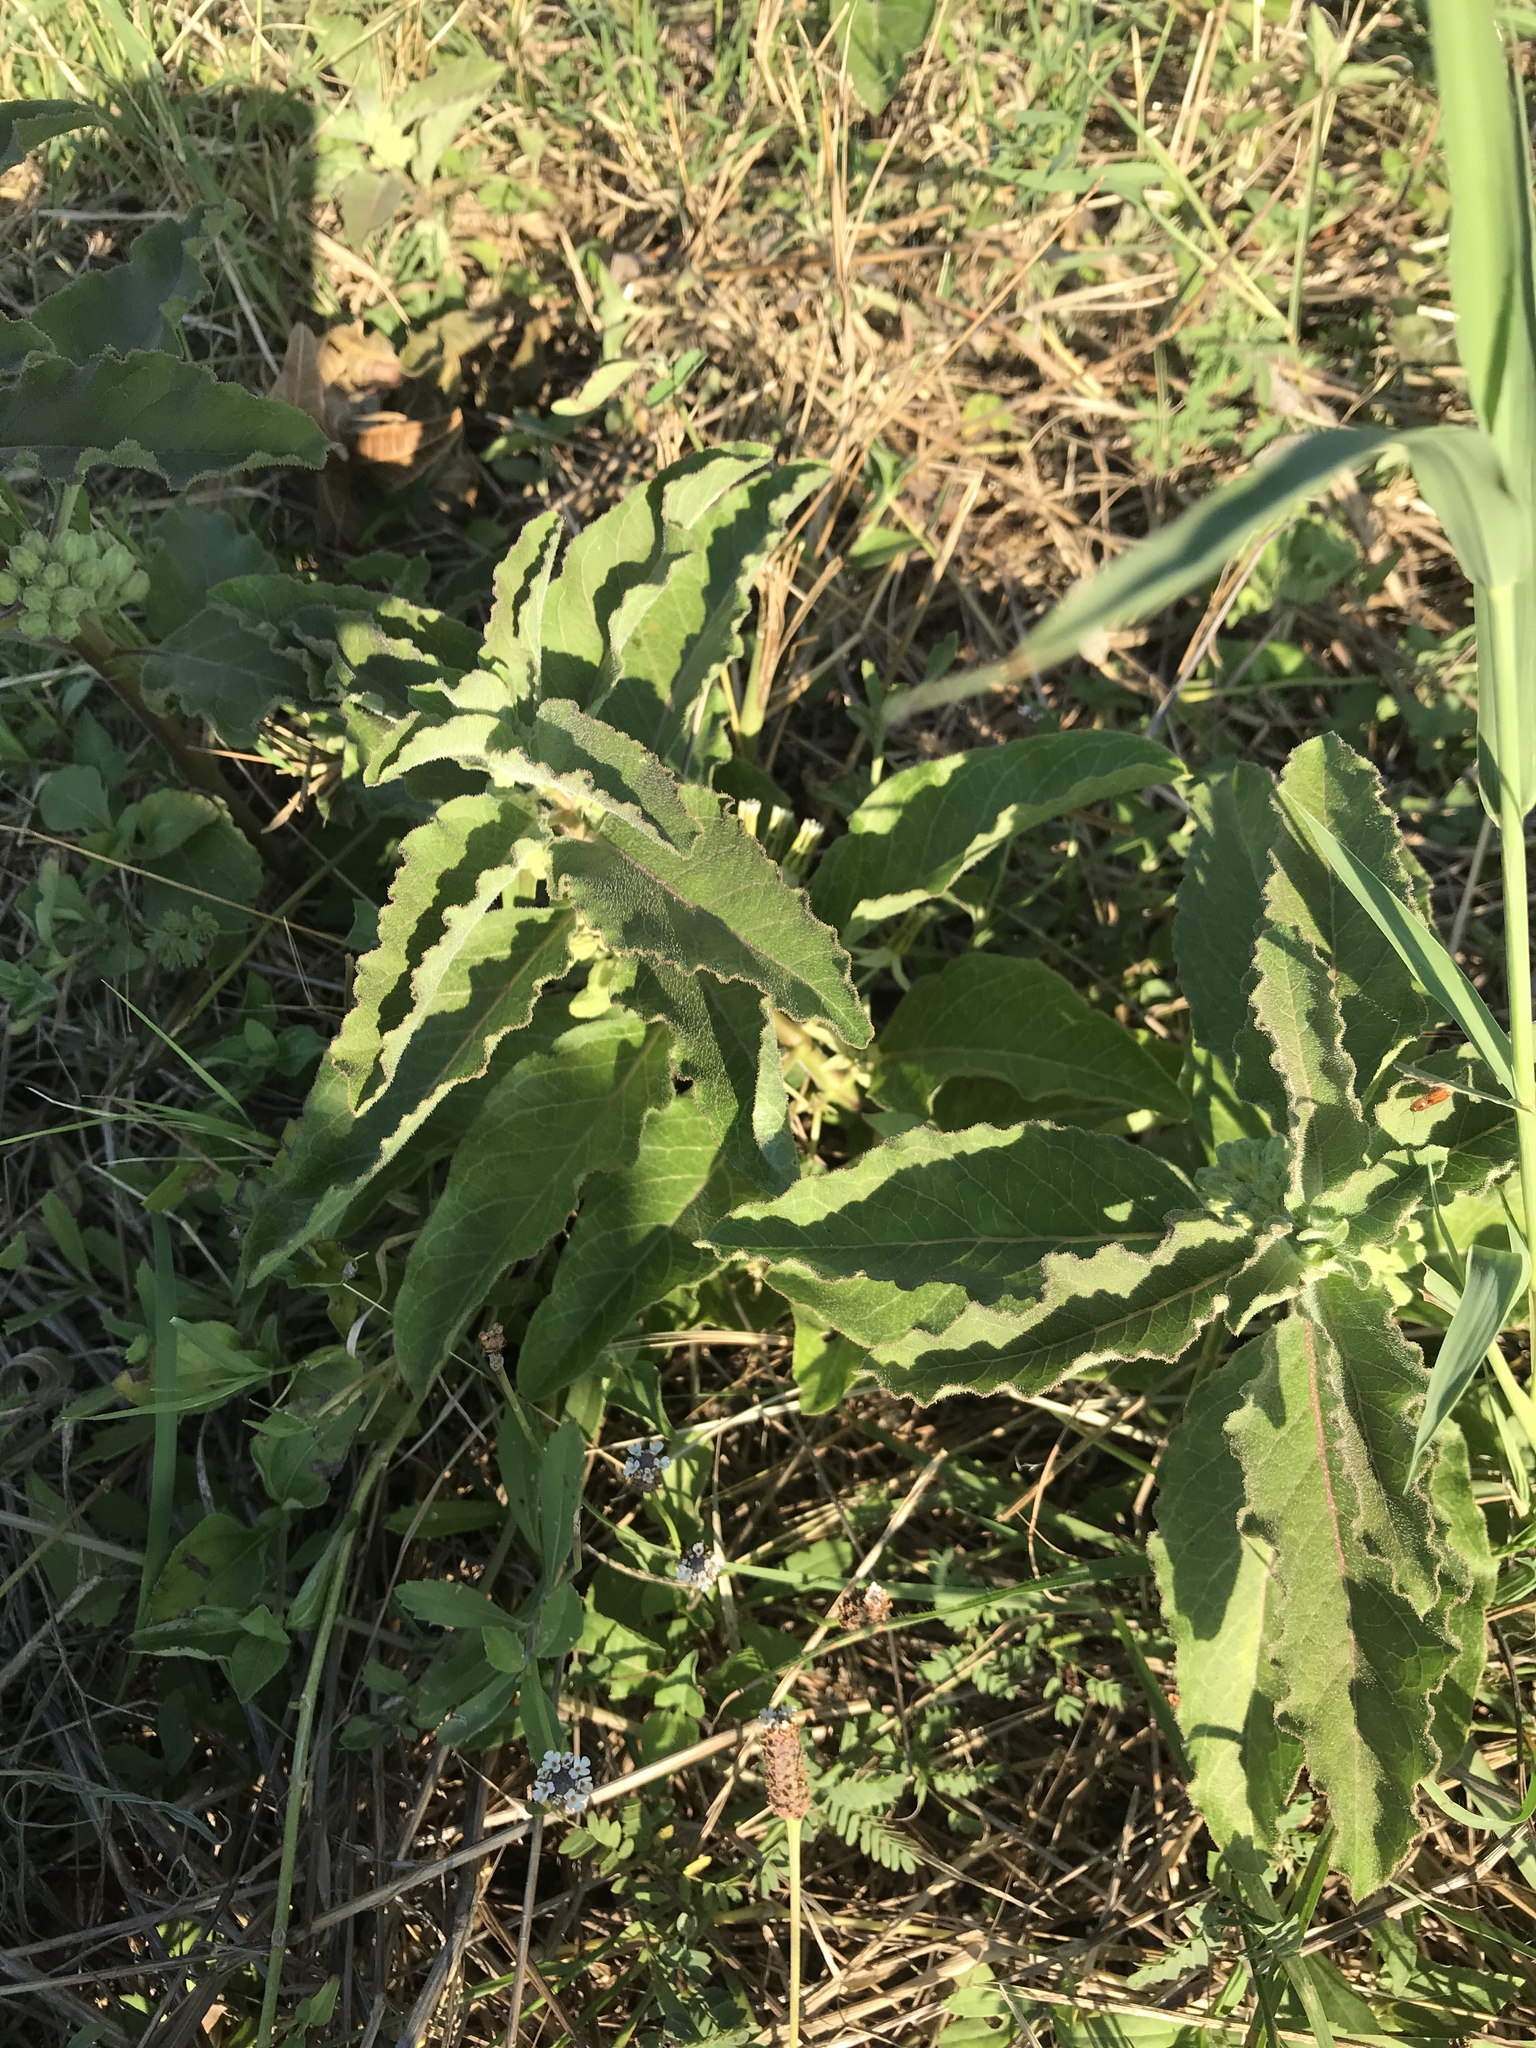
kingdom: Plantae
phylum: Tracheophyta
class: Magnoliopsida
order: Gentianales
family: Apocynaceae
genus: Asclepias
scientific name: Asclepias oenotheroides
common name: Zizotes milkweed
